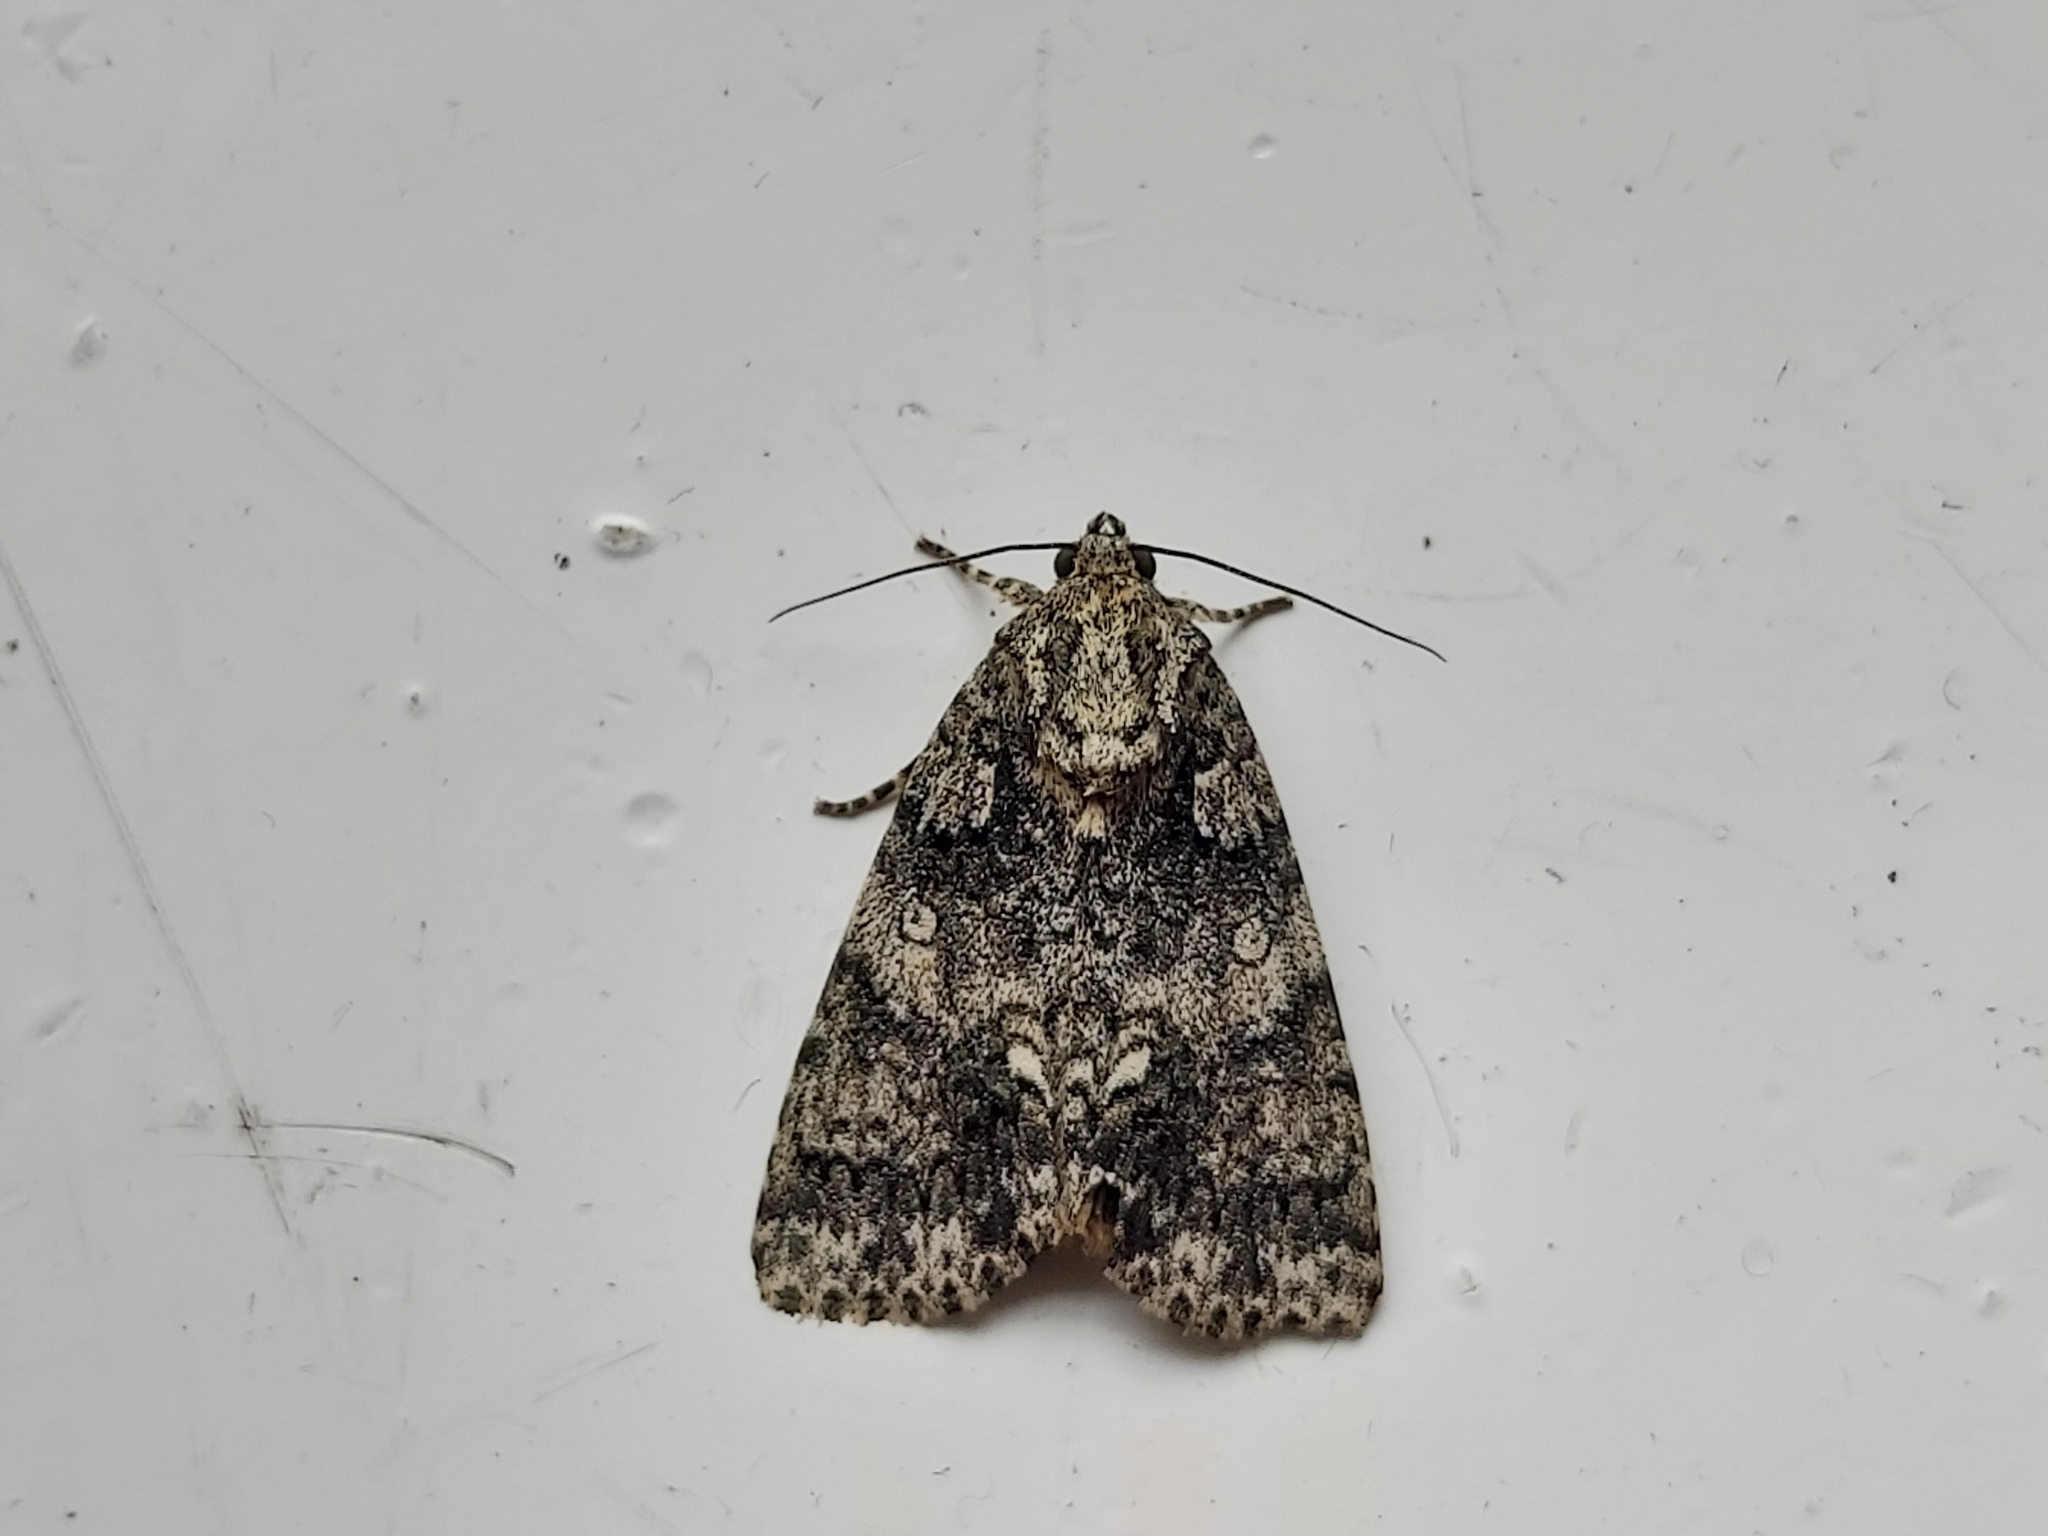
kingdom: Animalia
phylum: Arthropoda
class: Insecta
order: Lepidoptera
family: Noctuidae
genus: Acronicta
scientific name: Acronicta rumicis
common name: Knot grass
